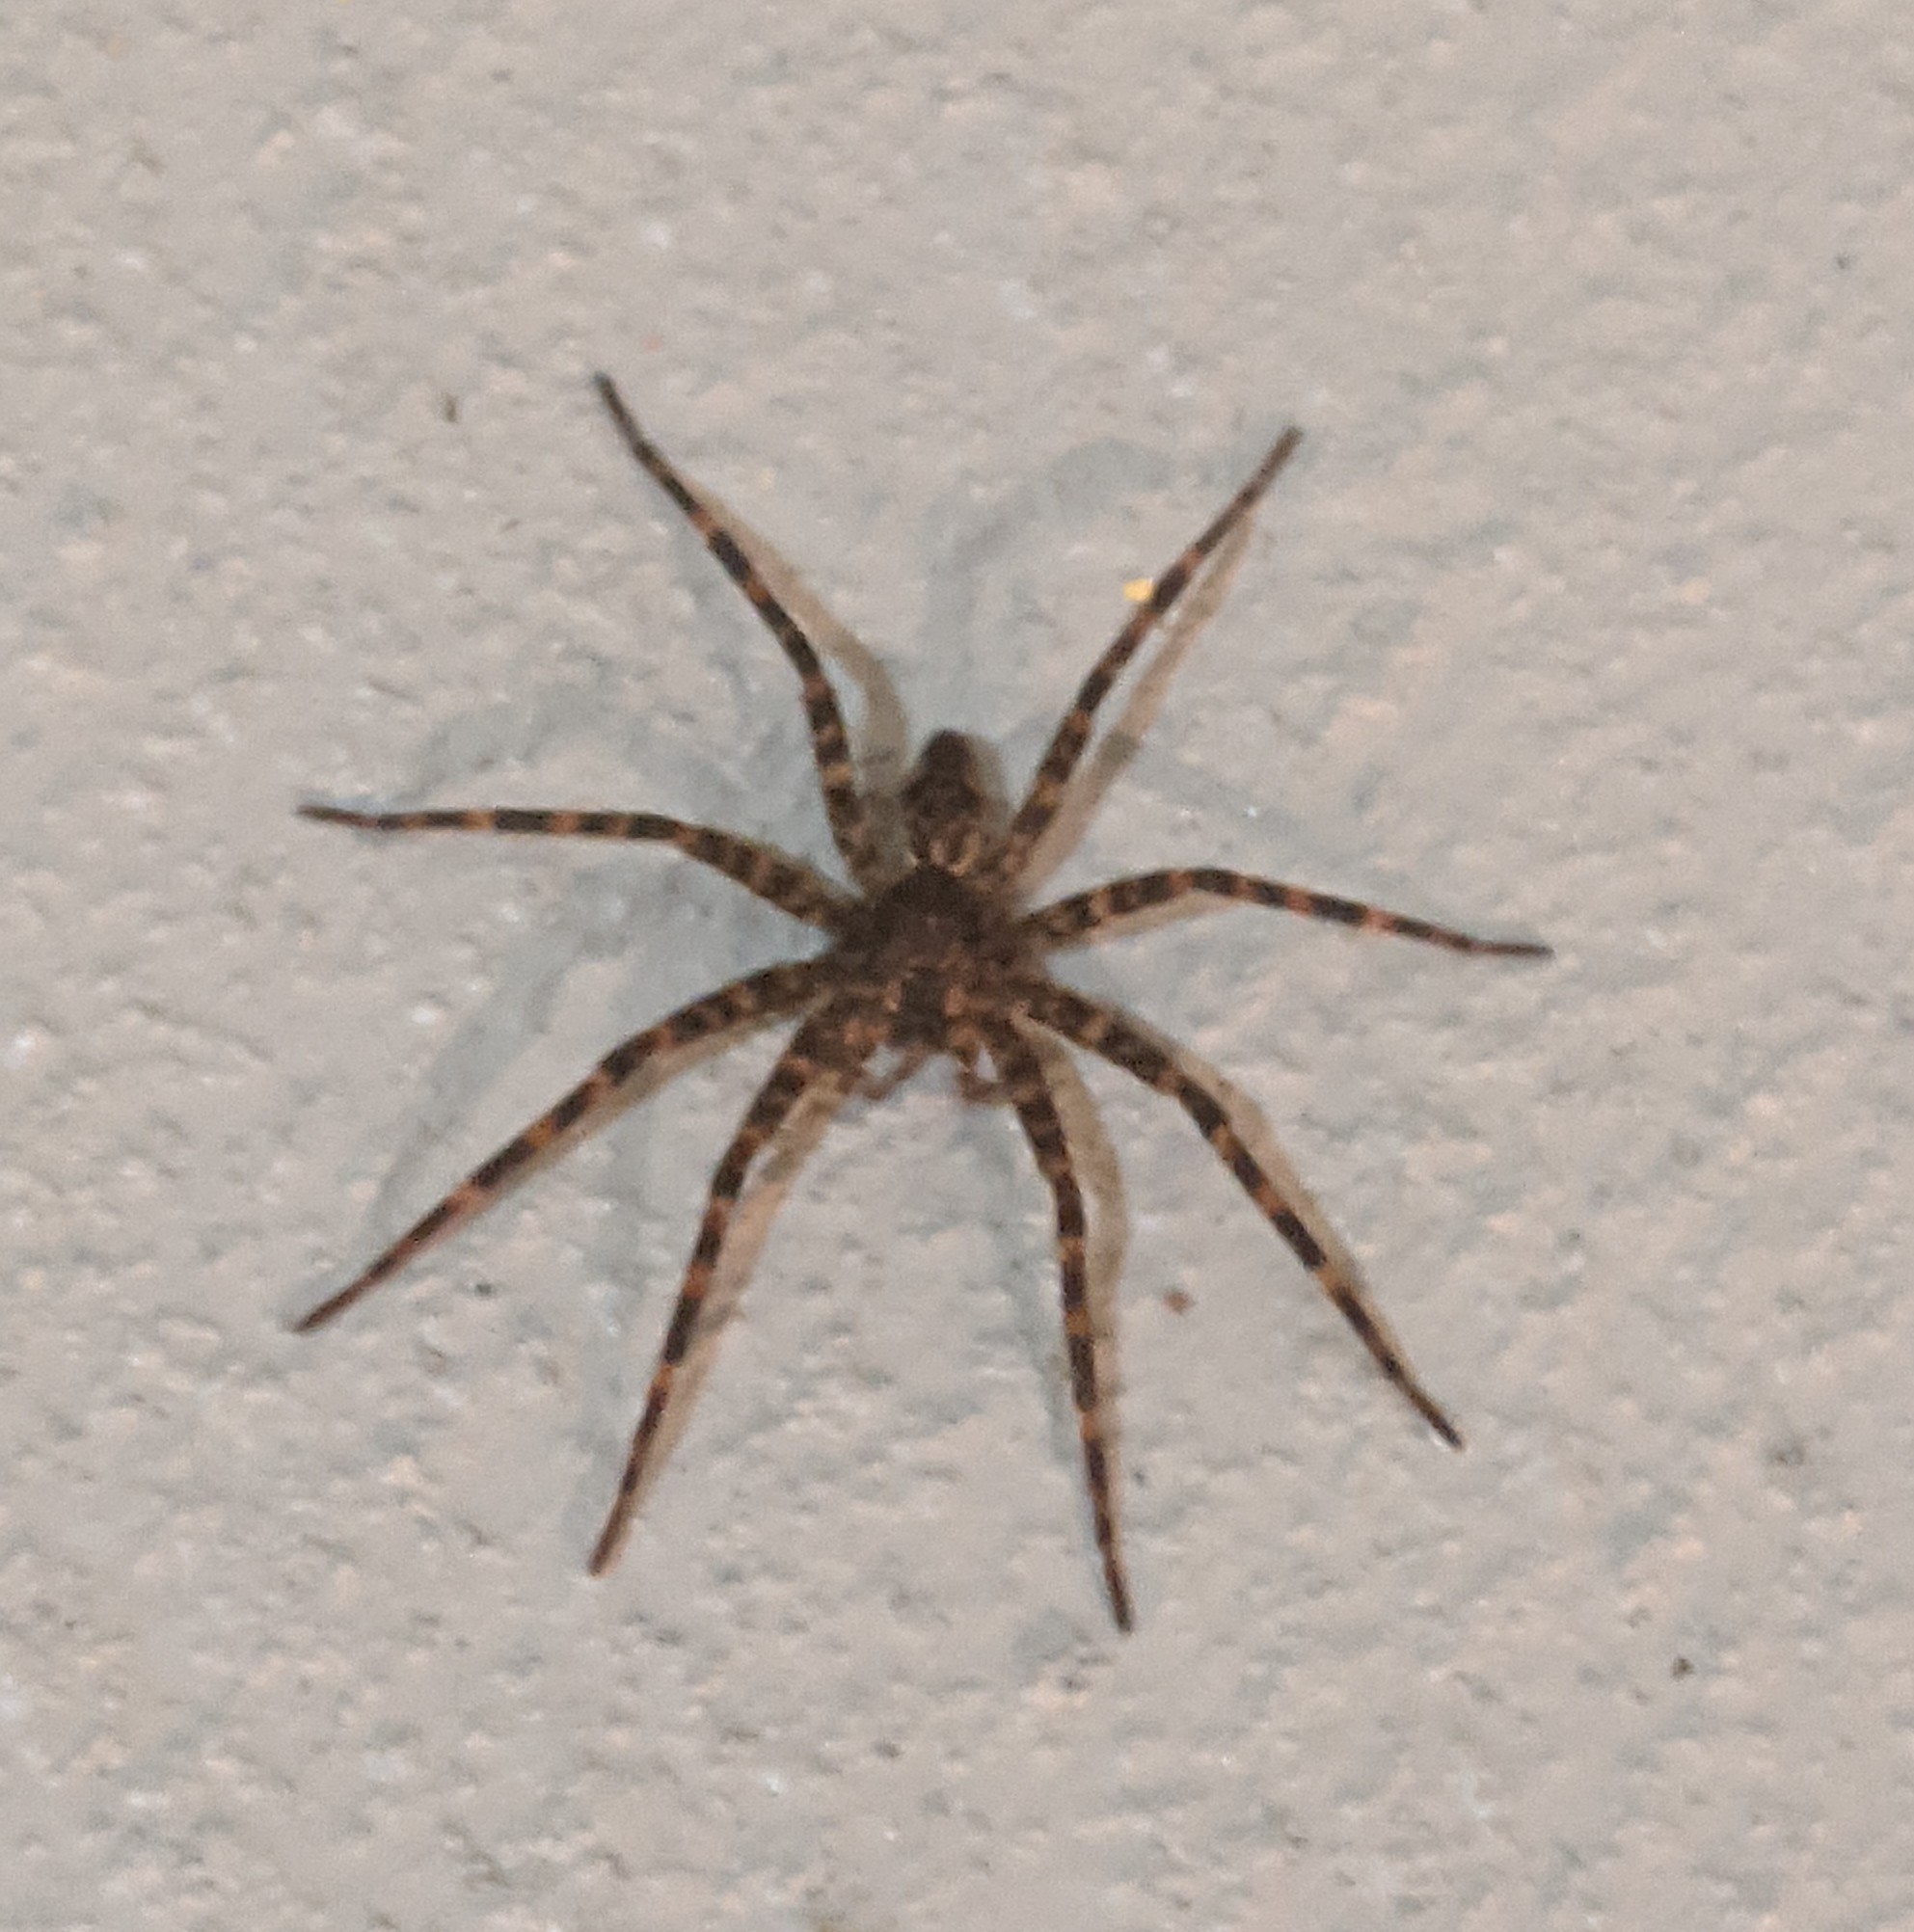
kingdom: Animalia
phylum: Arthropoda
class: Arachnida
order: Araneae
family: Pisauridae
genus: Dolomedes
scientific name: Dolomedes tenebrosus
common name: Dark fishing spider
